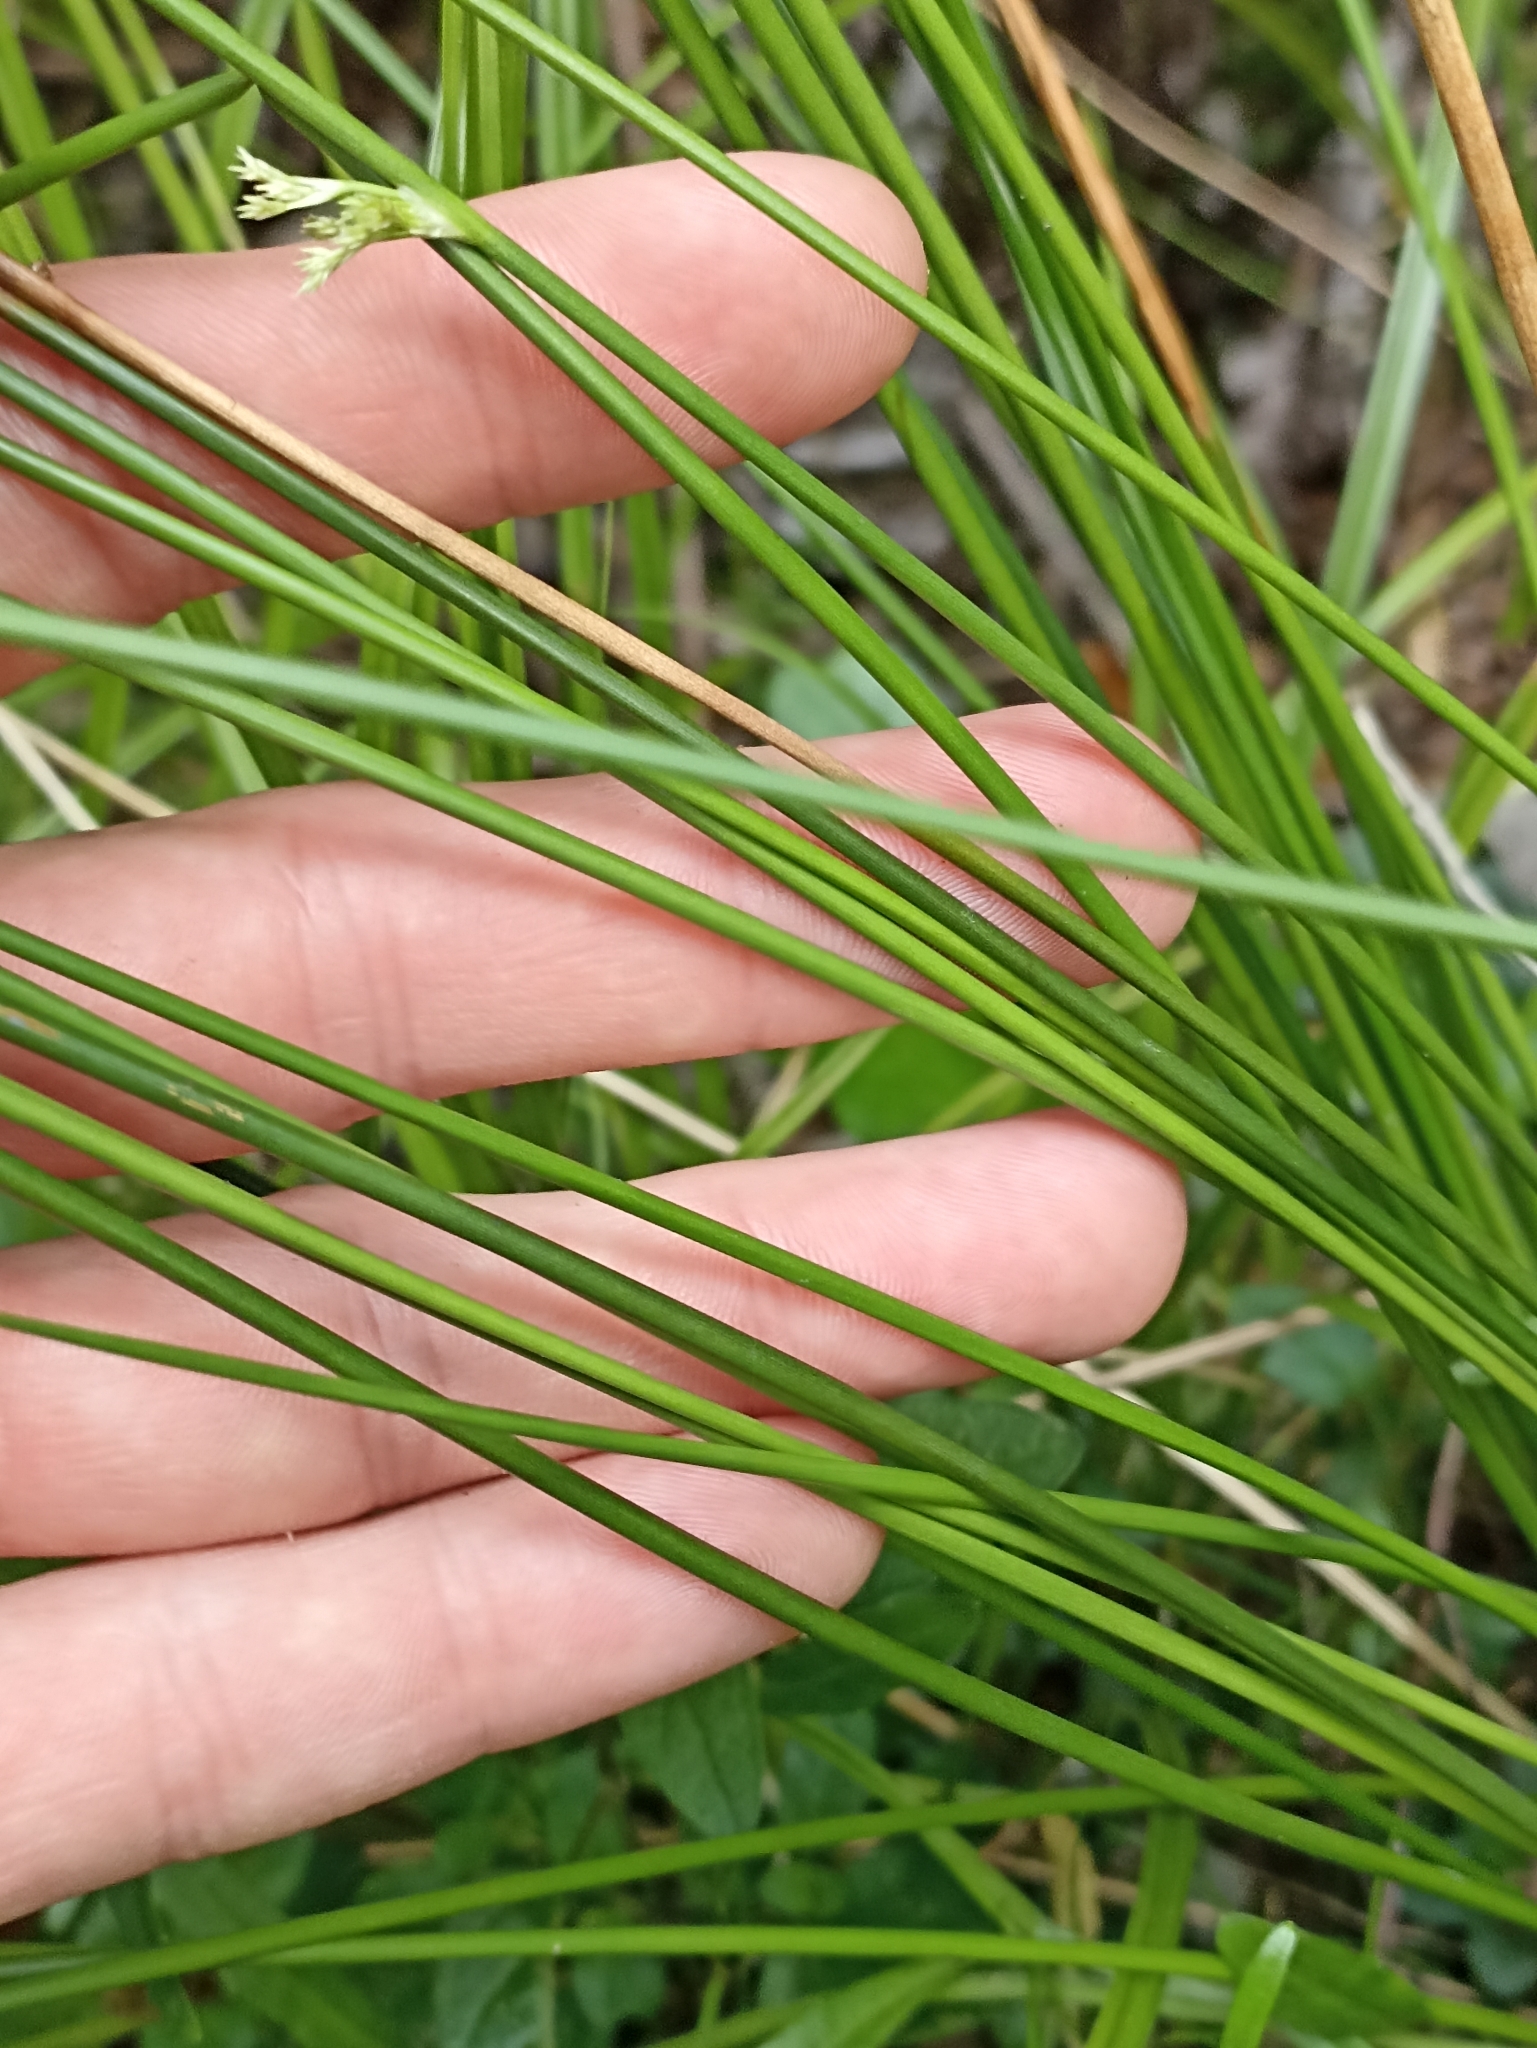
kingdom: Plantae
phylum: Tracheophyta
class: Liliopsida
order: Poales
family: Juncaceae
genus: Juncus
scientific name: Juncus effusus
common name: Soft rush
